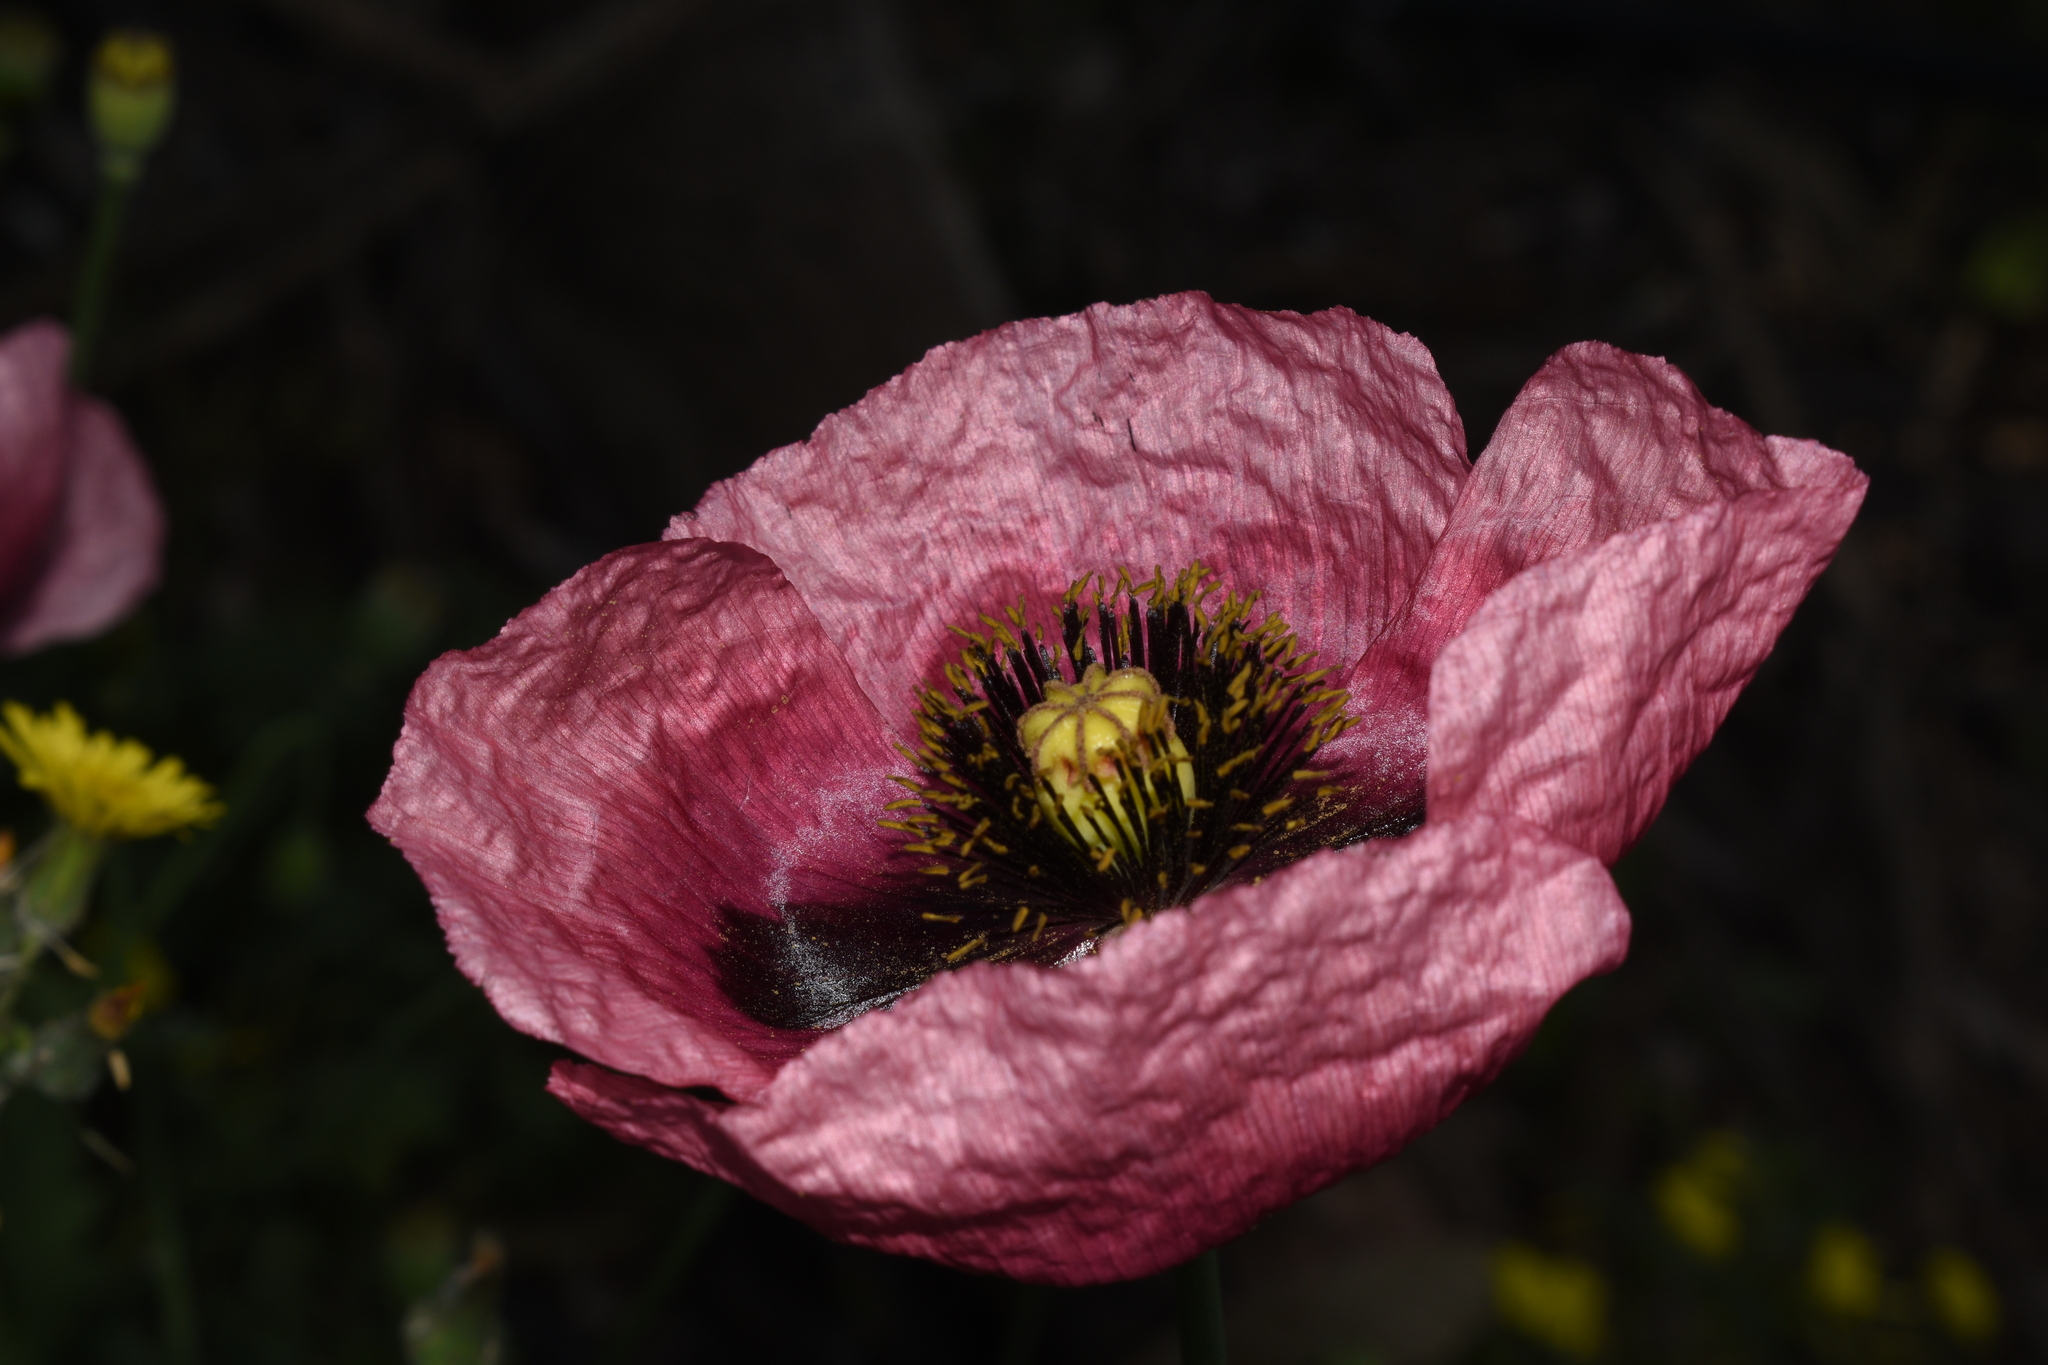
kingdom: Plantae
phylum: Tracheophyta
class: Magnoliopsida
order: Ranunculales
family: Papaveraceae
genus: Papaver
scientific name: Papaver somniferum
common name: Opium poppy
